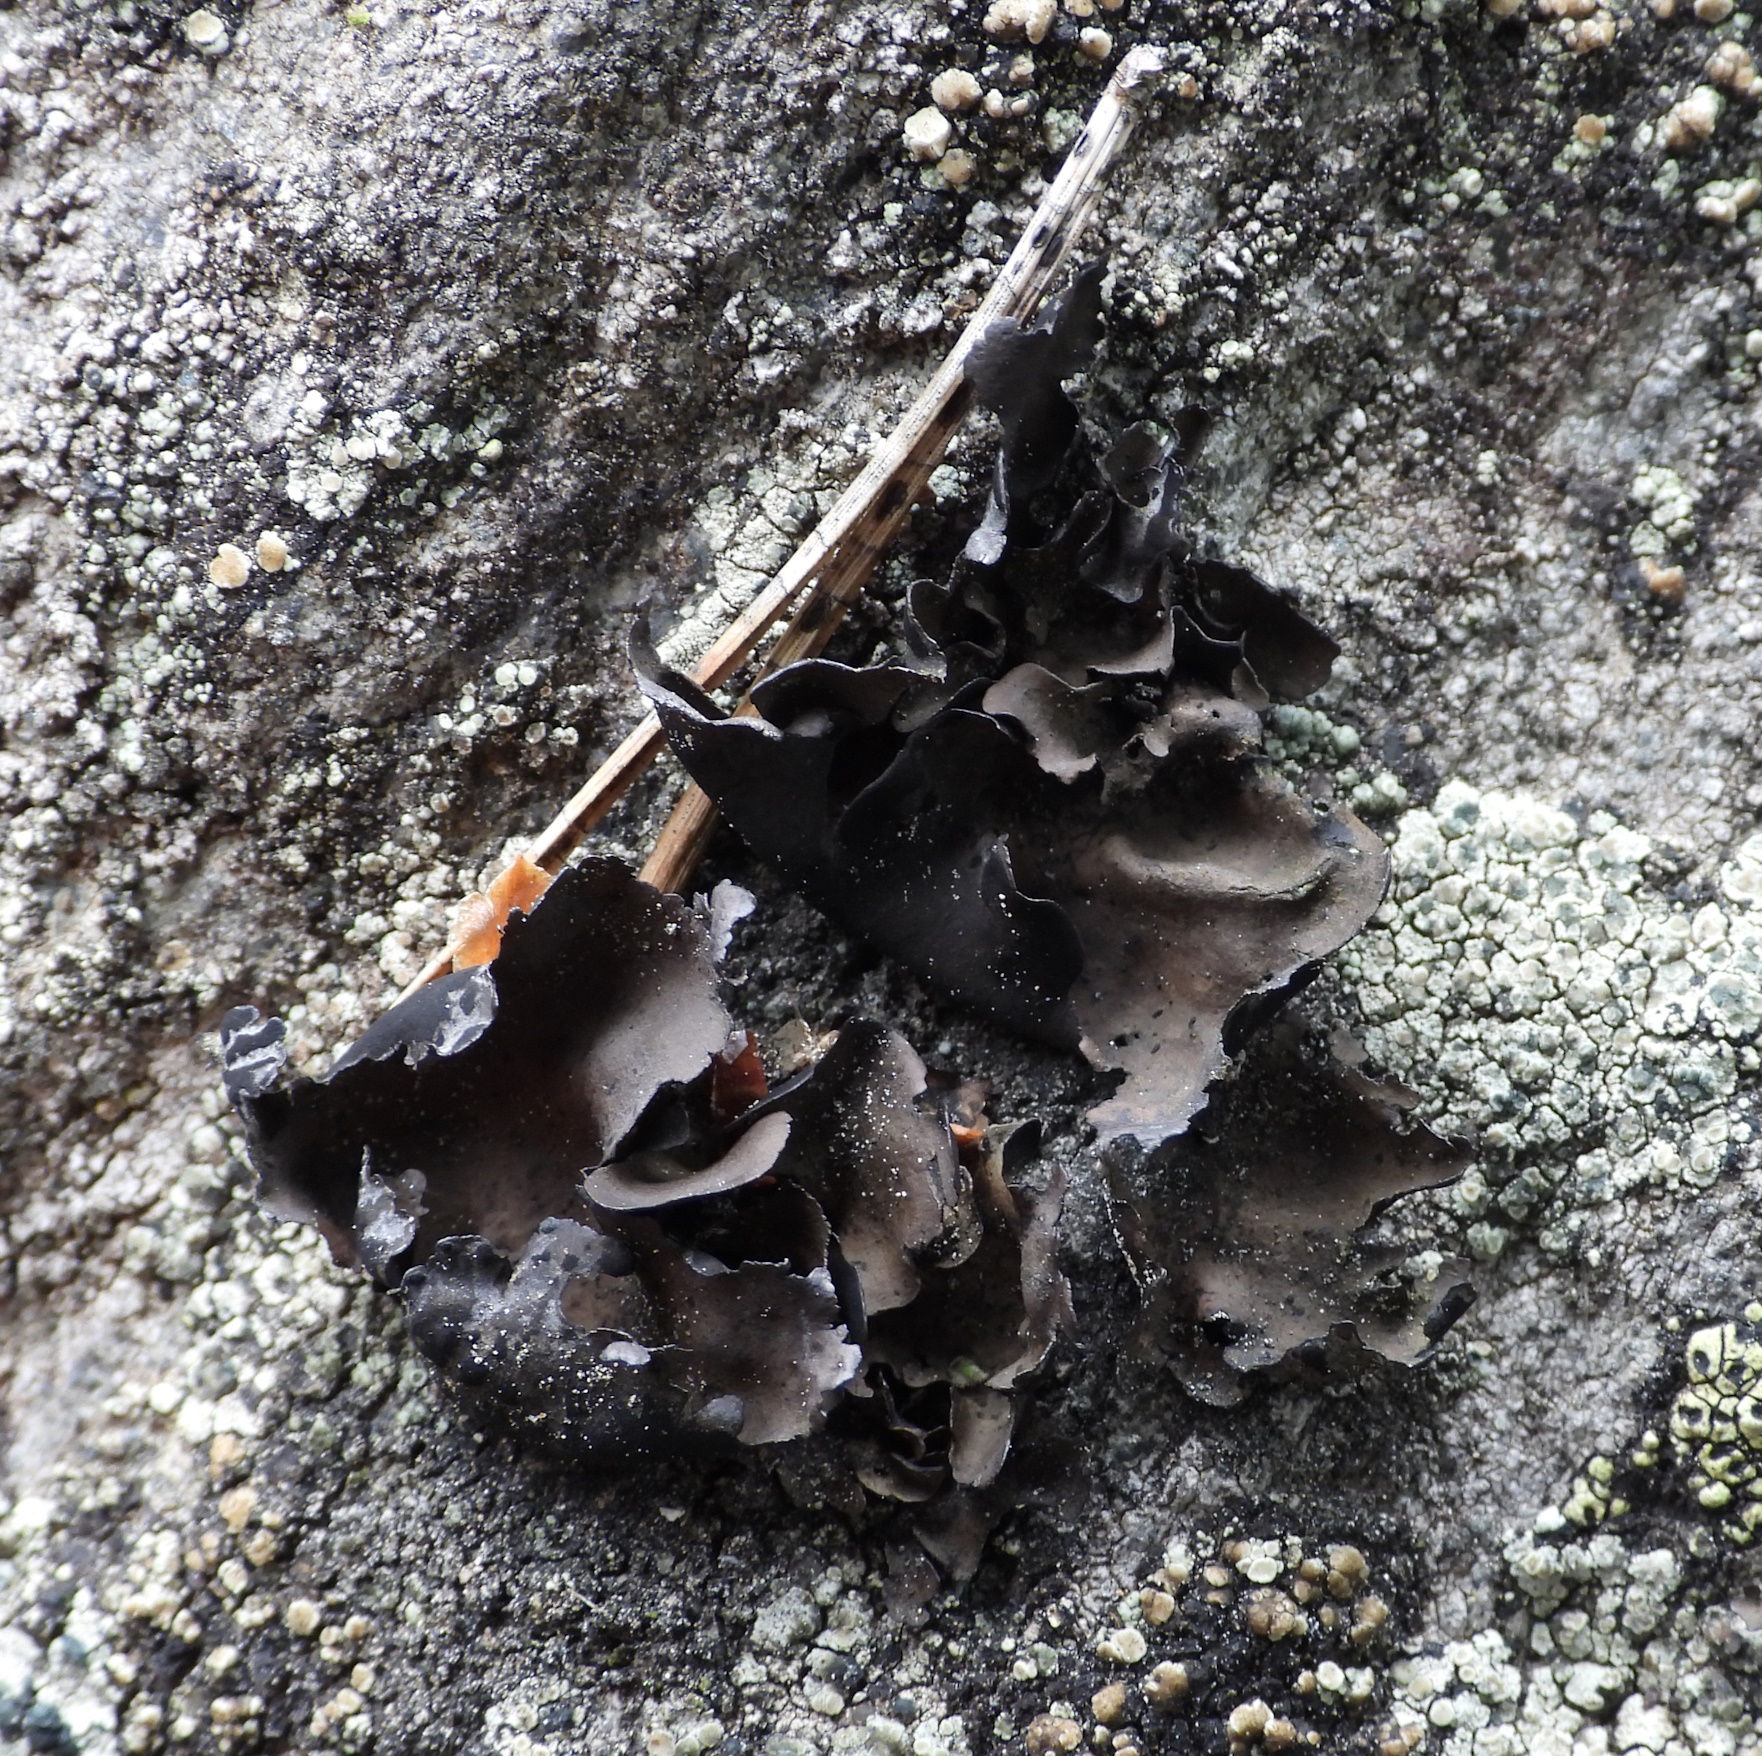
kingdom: Fungi
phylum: Ascomycota
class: Lecanoromycetes
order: Umbilicariales
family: Umbilicariaceae
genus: Umbilicaria
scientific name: Umbilicaria polyphylla
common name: Petalled rocktripe lichen
